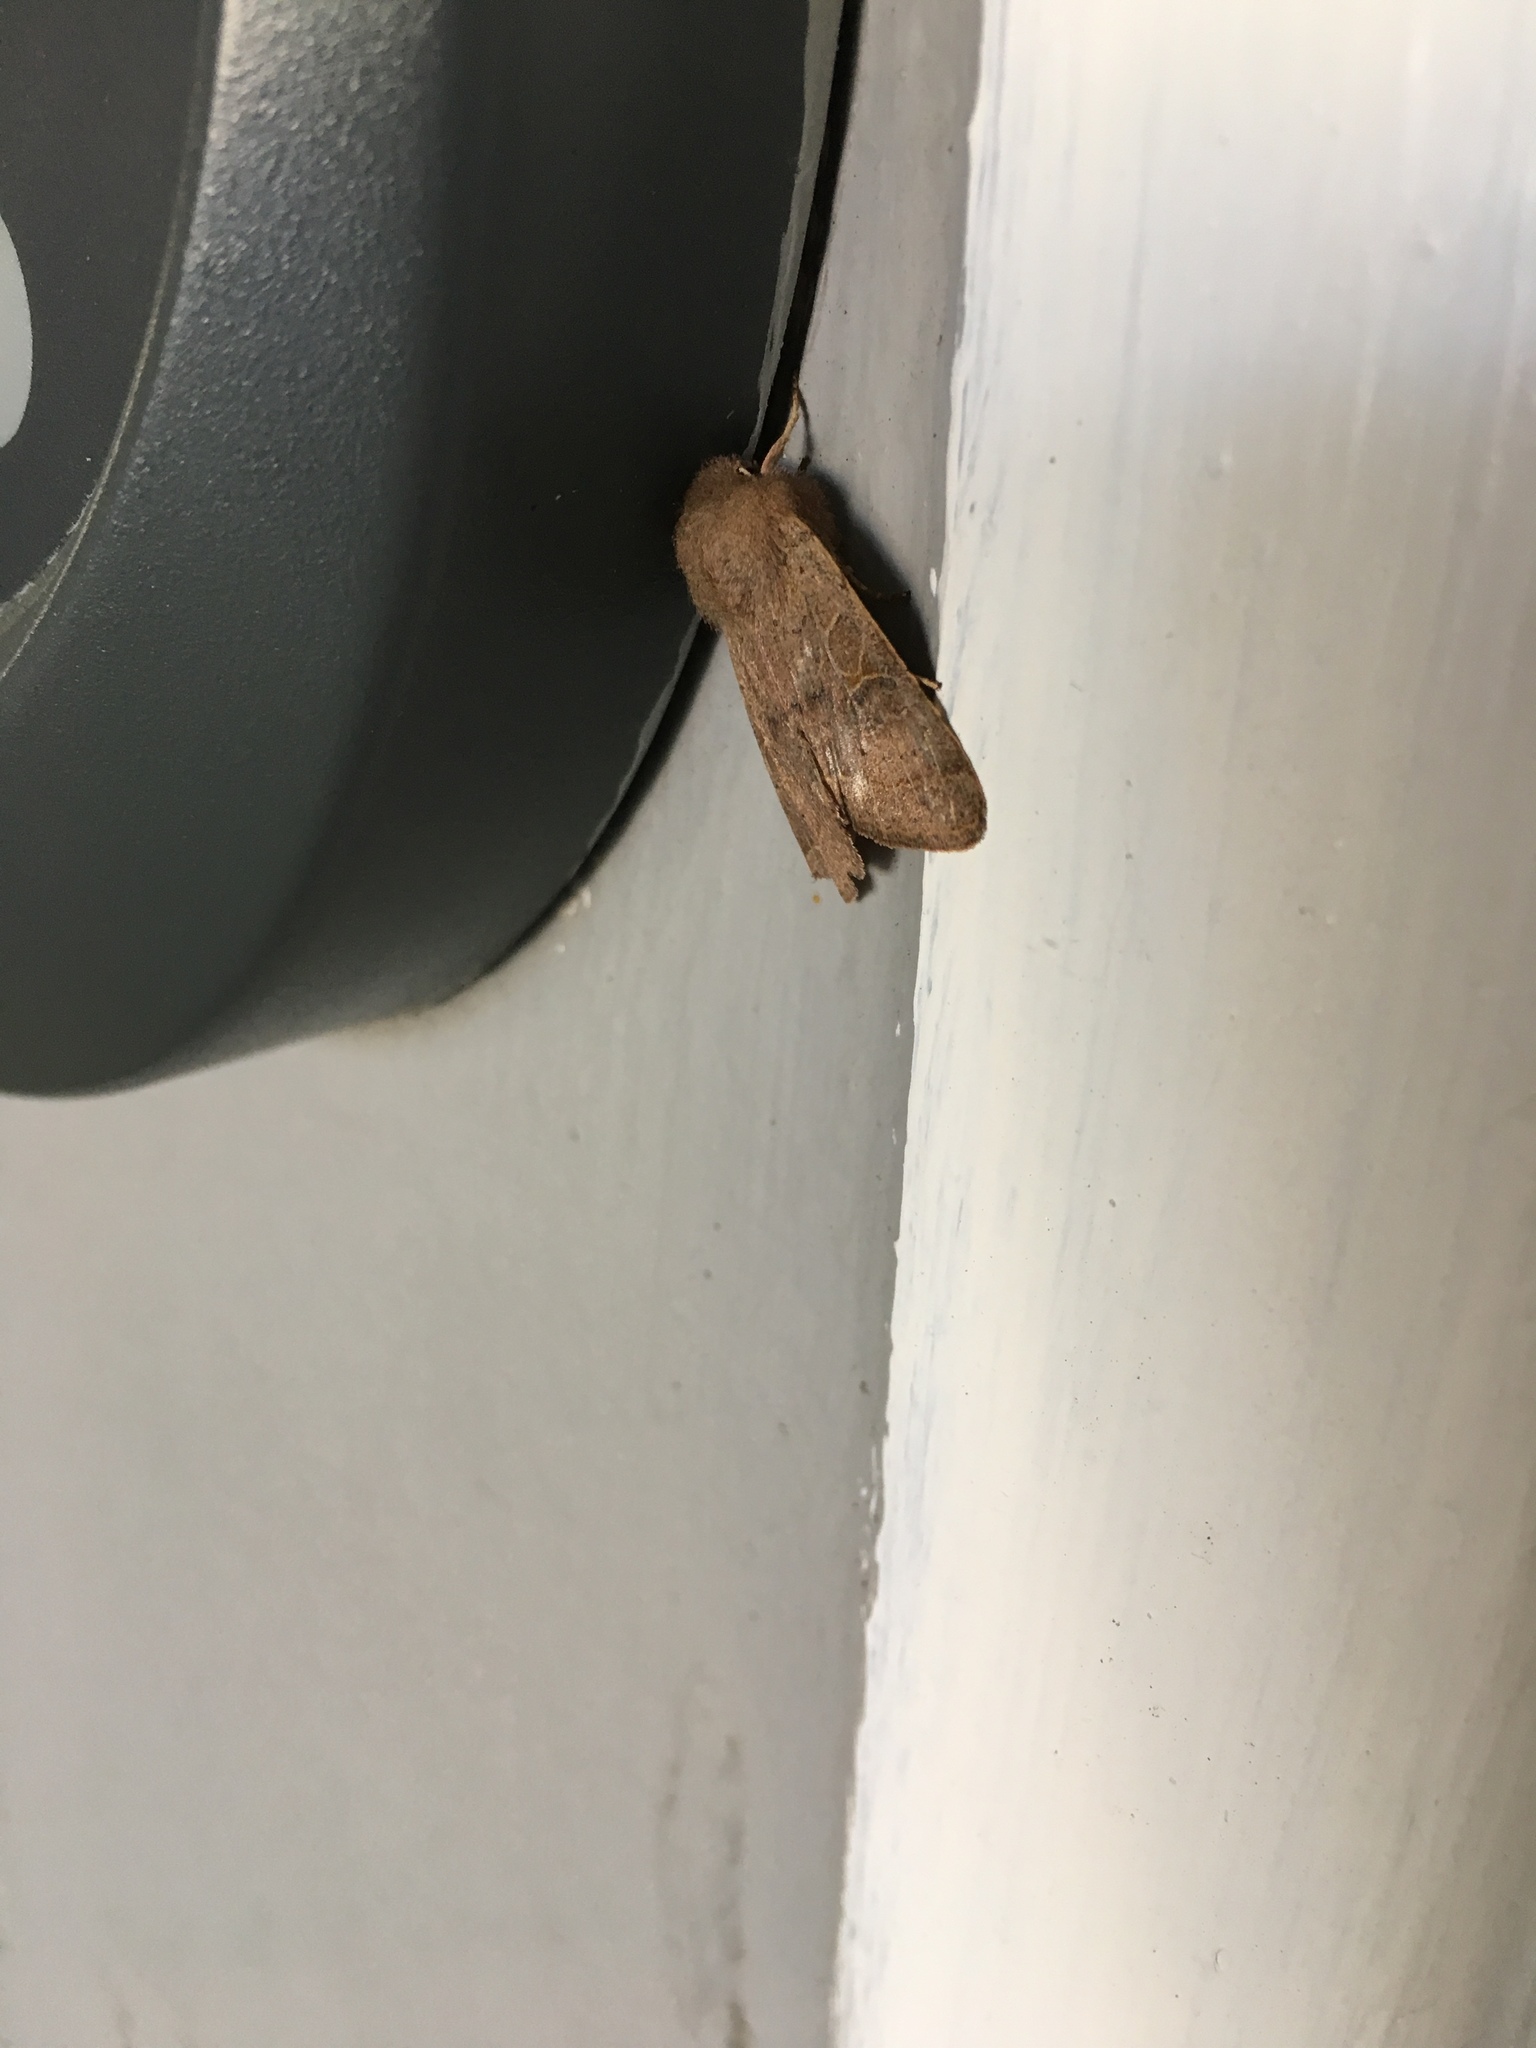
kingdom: Animalia
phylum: Arthropoda
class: Insecta
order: Lepidoptera
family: Noctuidae
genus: Orthosia
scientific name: Orthosia cerasi
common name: Common quaker
